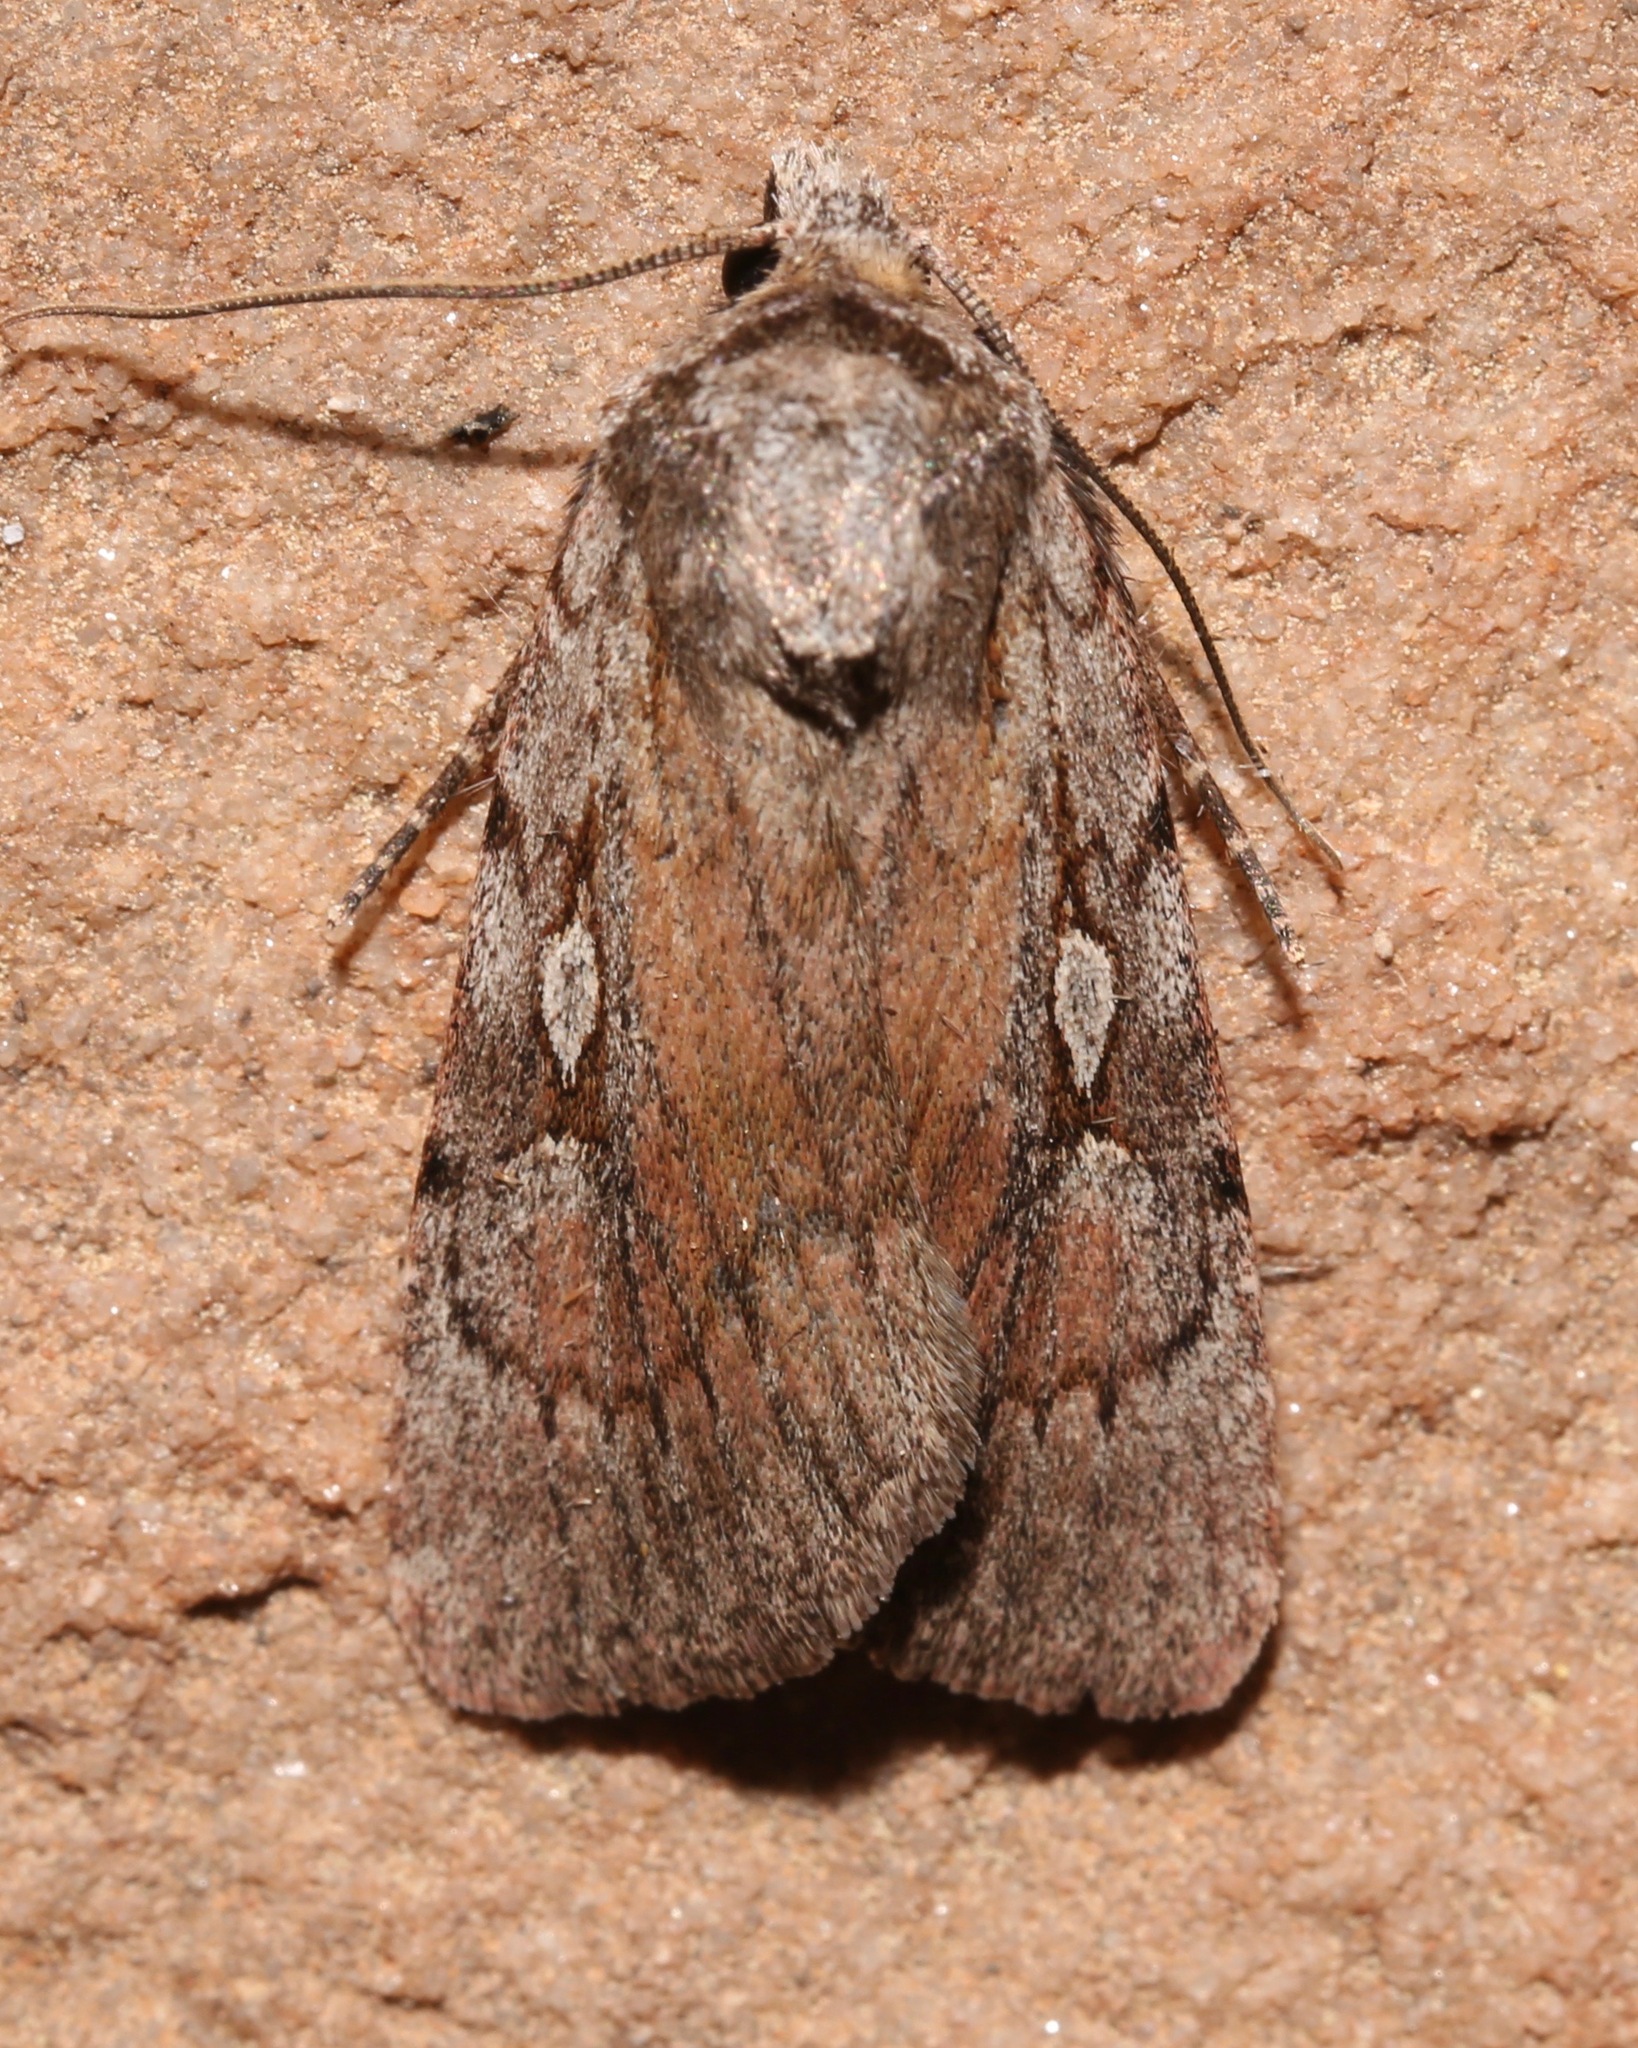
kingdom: Animalia
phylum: Arthropoda
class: Insecta
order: Lepidoptera
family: Noctuidae
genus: Setagrotis
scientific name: Setagrotis vocalis
